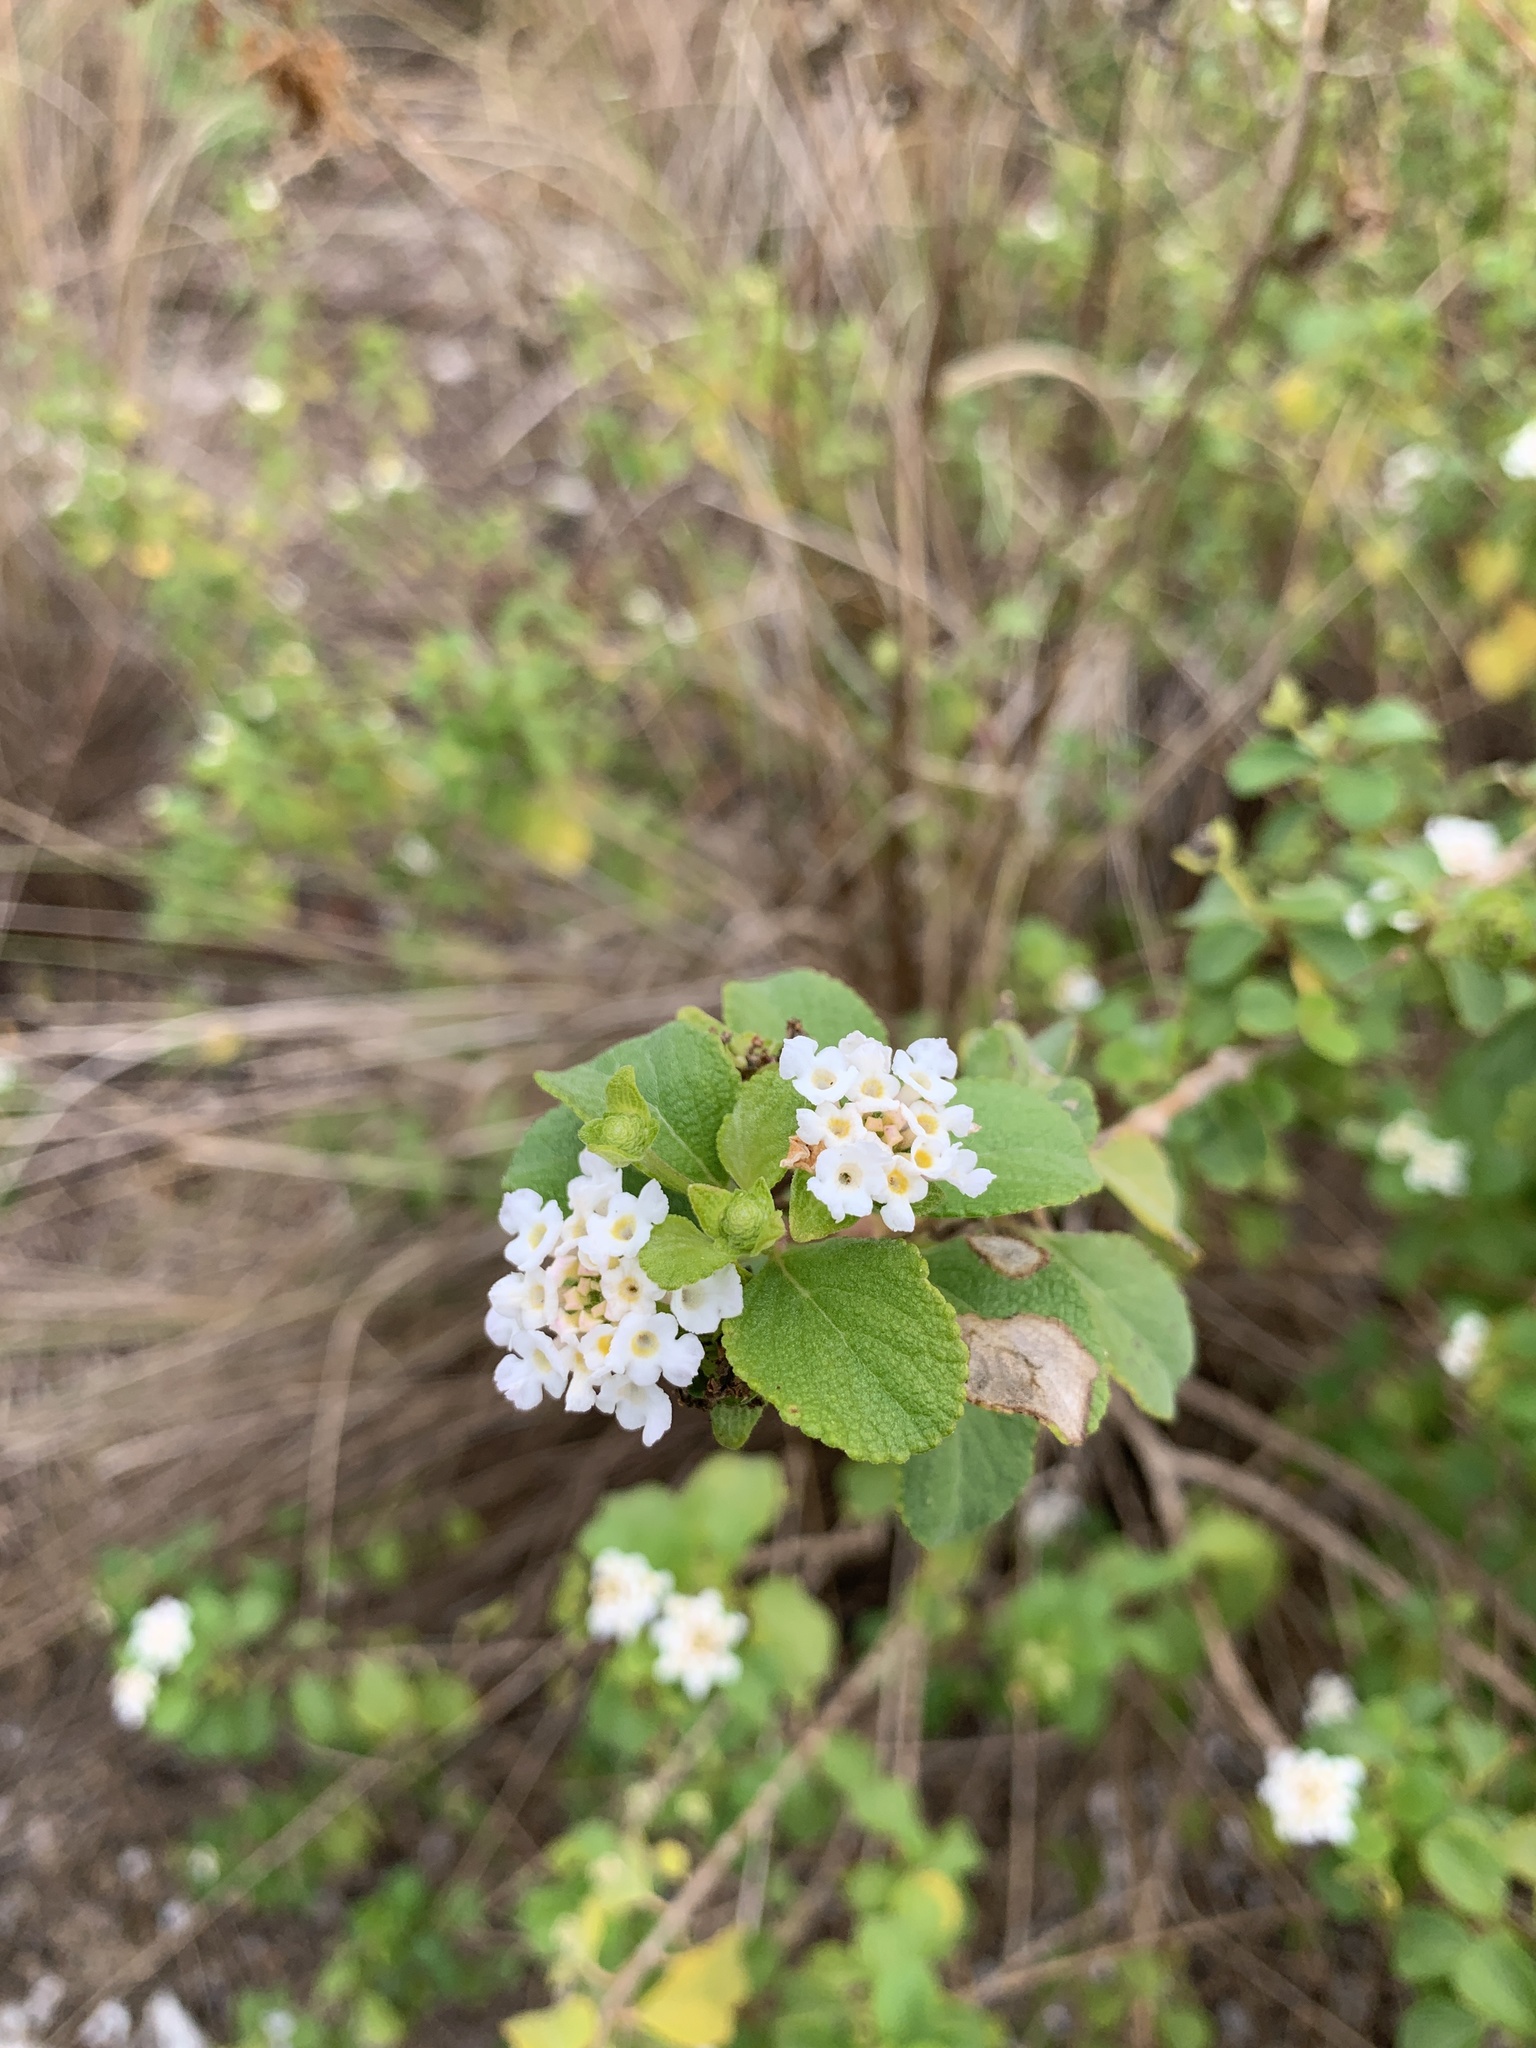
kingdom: Plantae
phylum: Tracheophyta
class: Magnoliopsida
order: Lamiales
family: Verbenaceae
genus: Lantana
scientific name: Lantana involucrata
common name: Black sage
